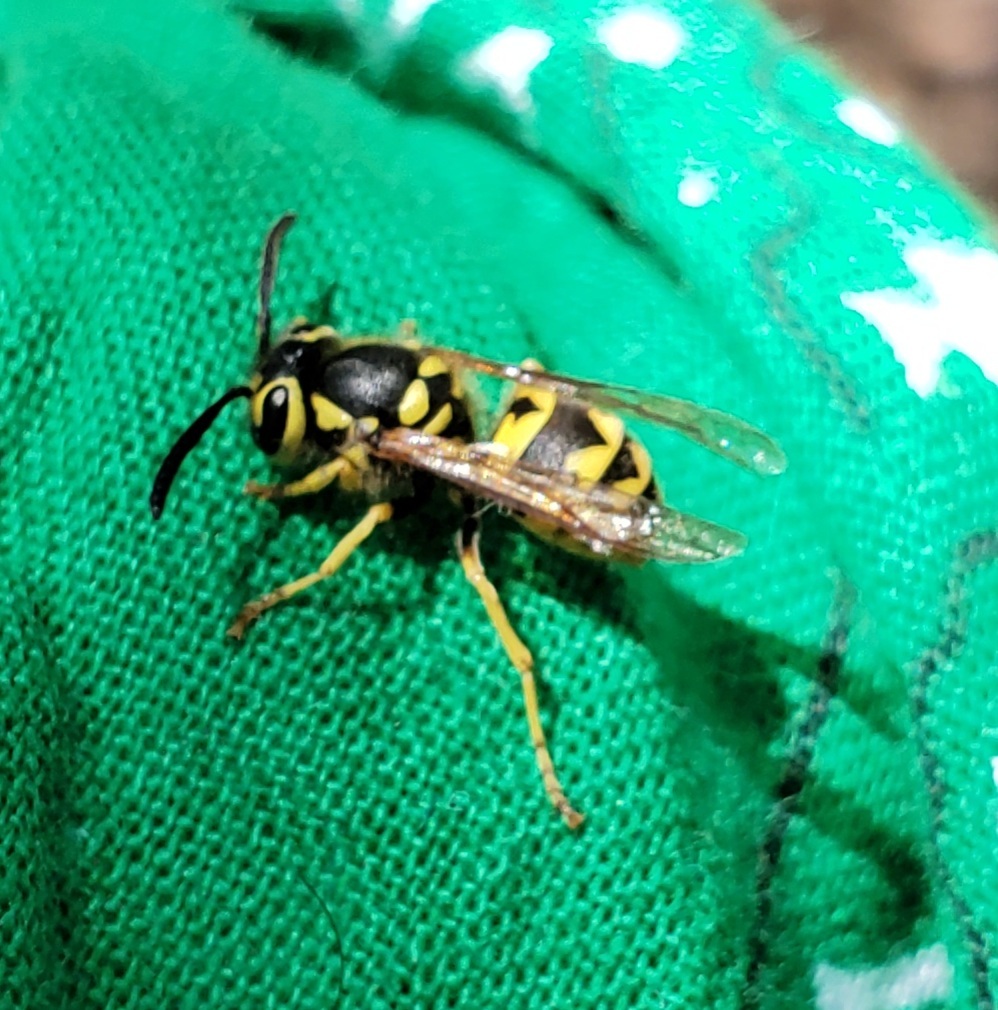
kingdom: Animalia
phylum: Arthropoda
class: Insecta
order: Hymenoptera
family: Vespidae
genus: Vespula
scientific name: Vespula pensylvanica
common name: Western yellowjacket
